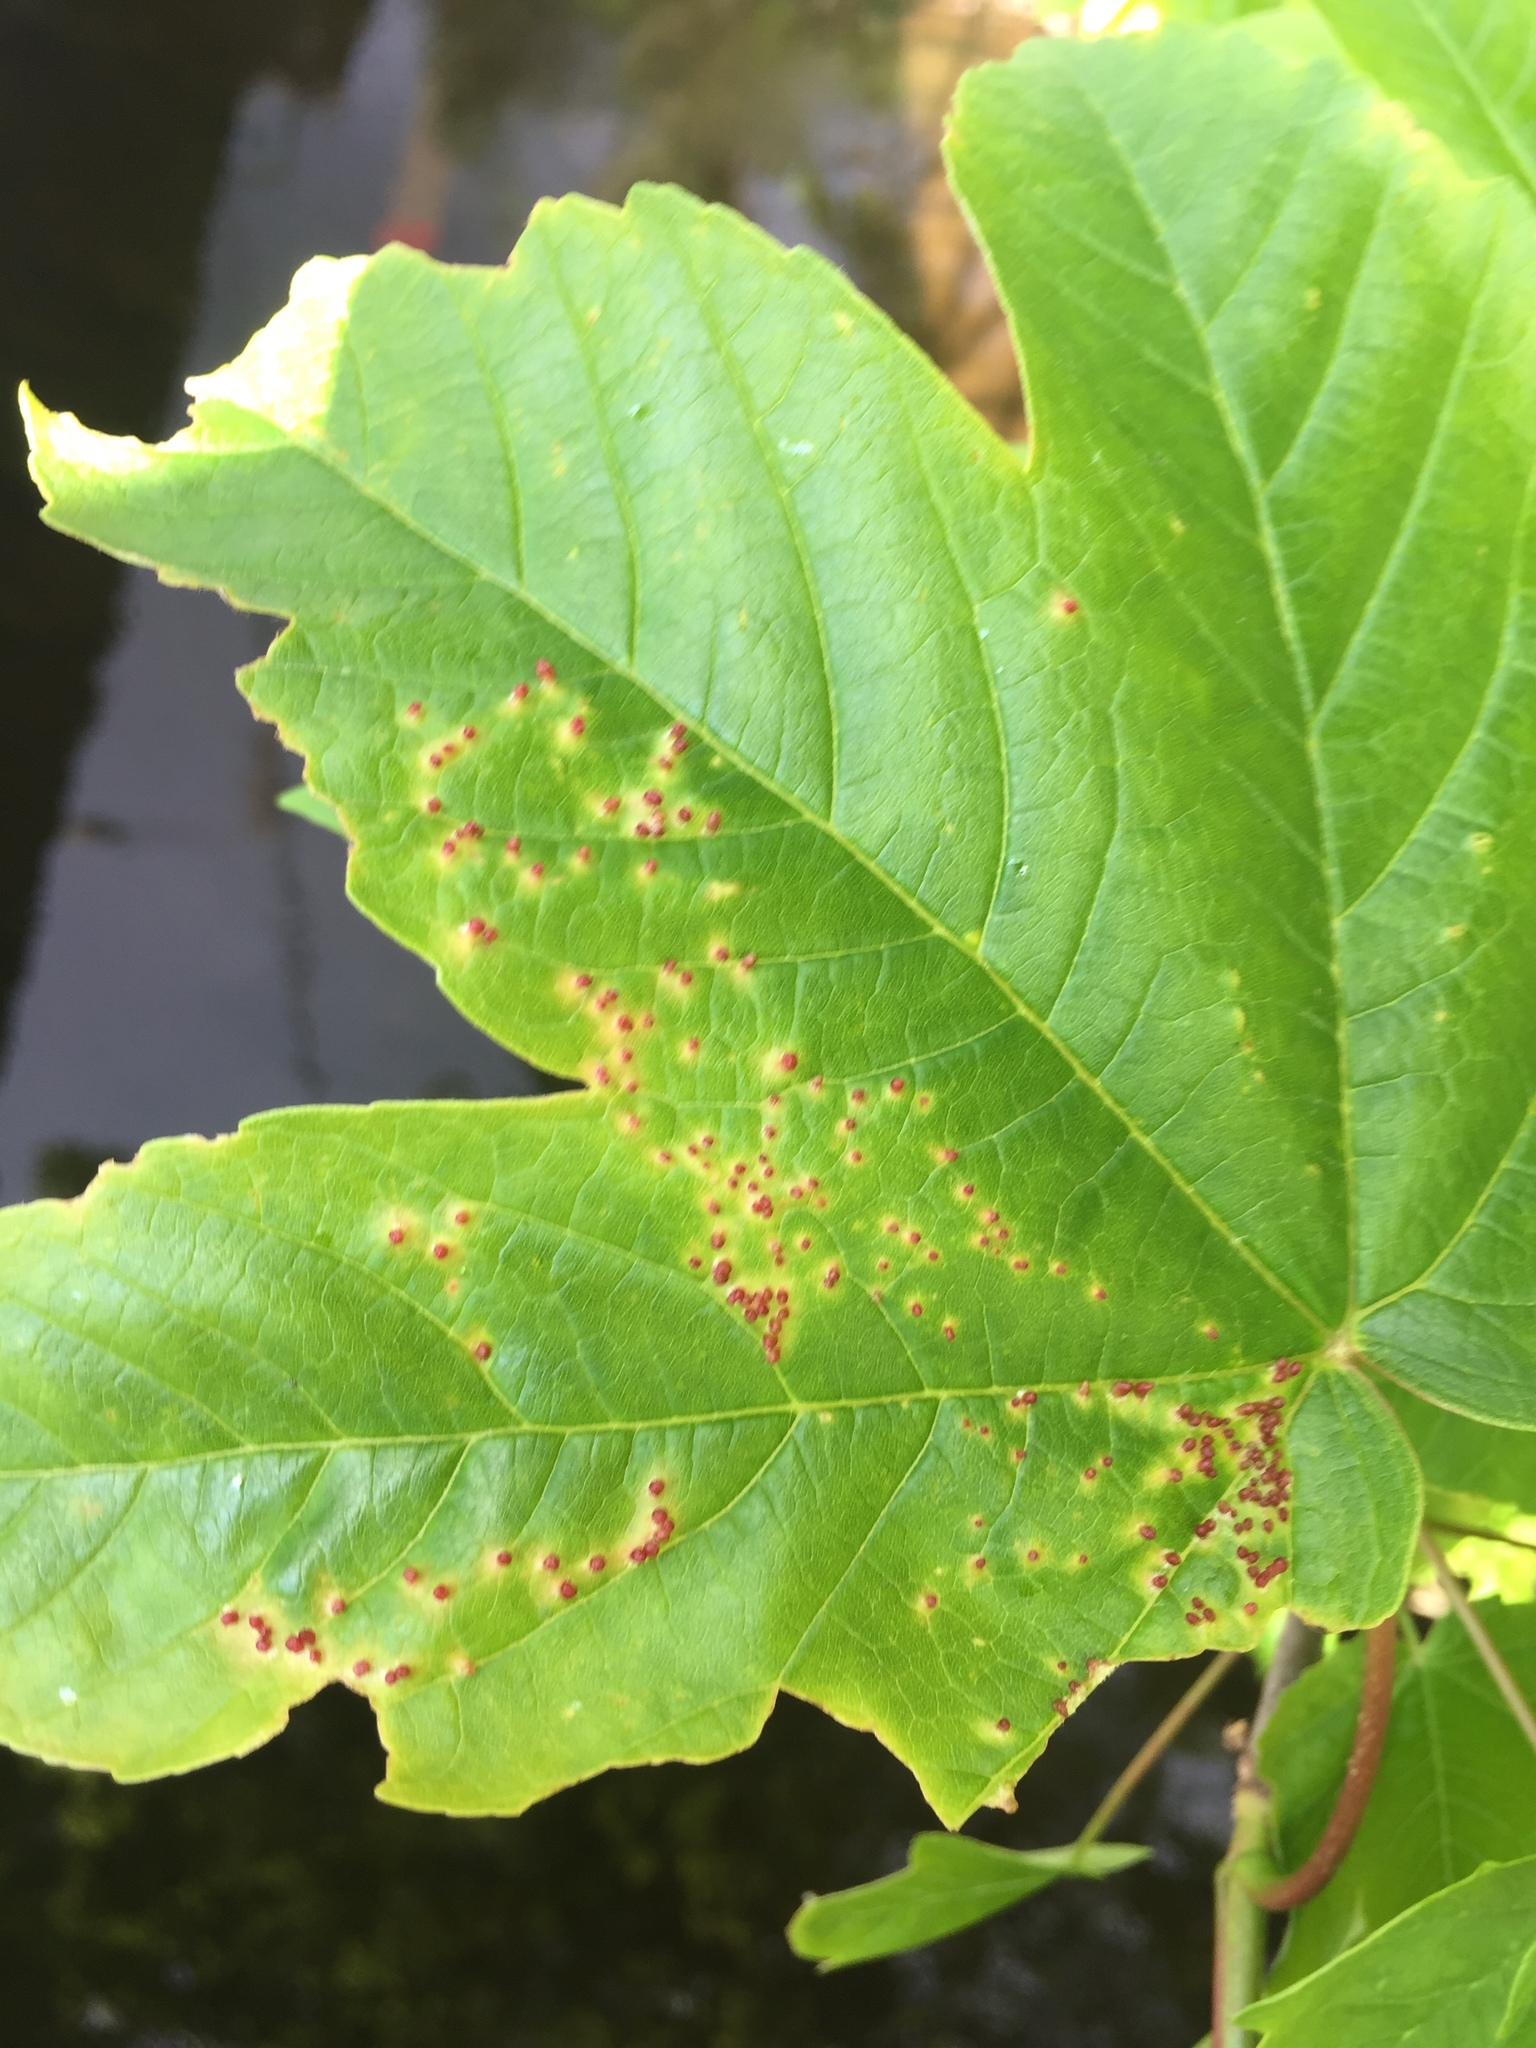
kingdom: Animalia
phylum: Arthropoda
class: Arachnida
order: Trombidiformes
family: Eriophyidae
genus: Aceria
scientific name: Aceria macrorhynchus
